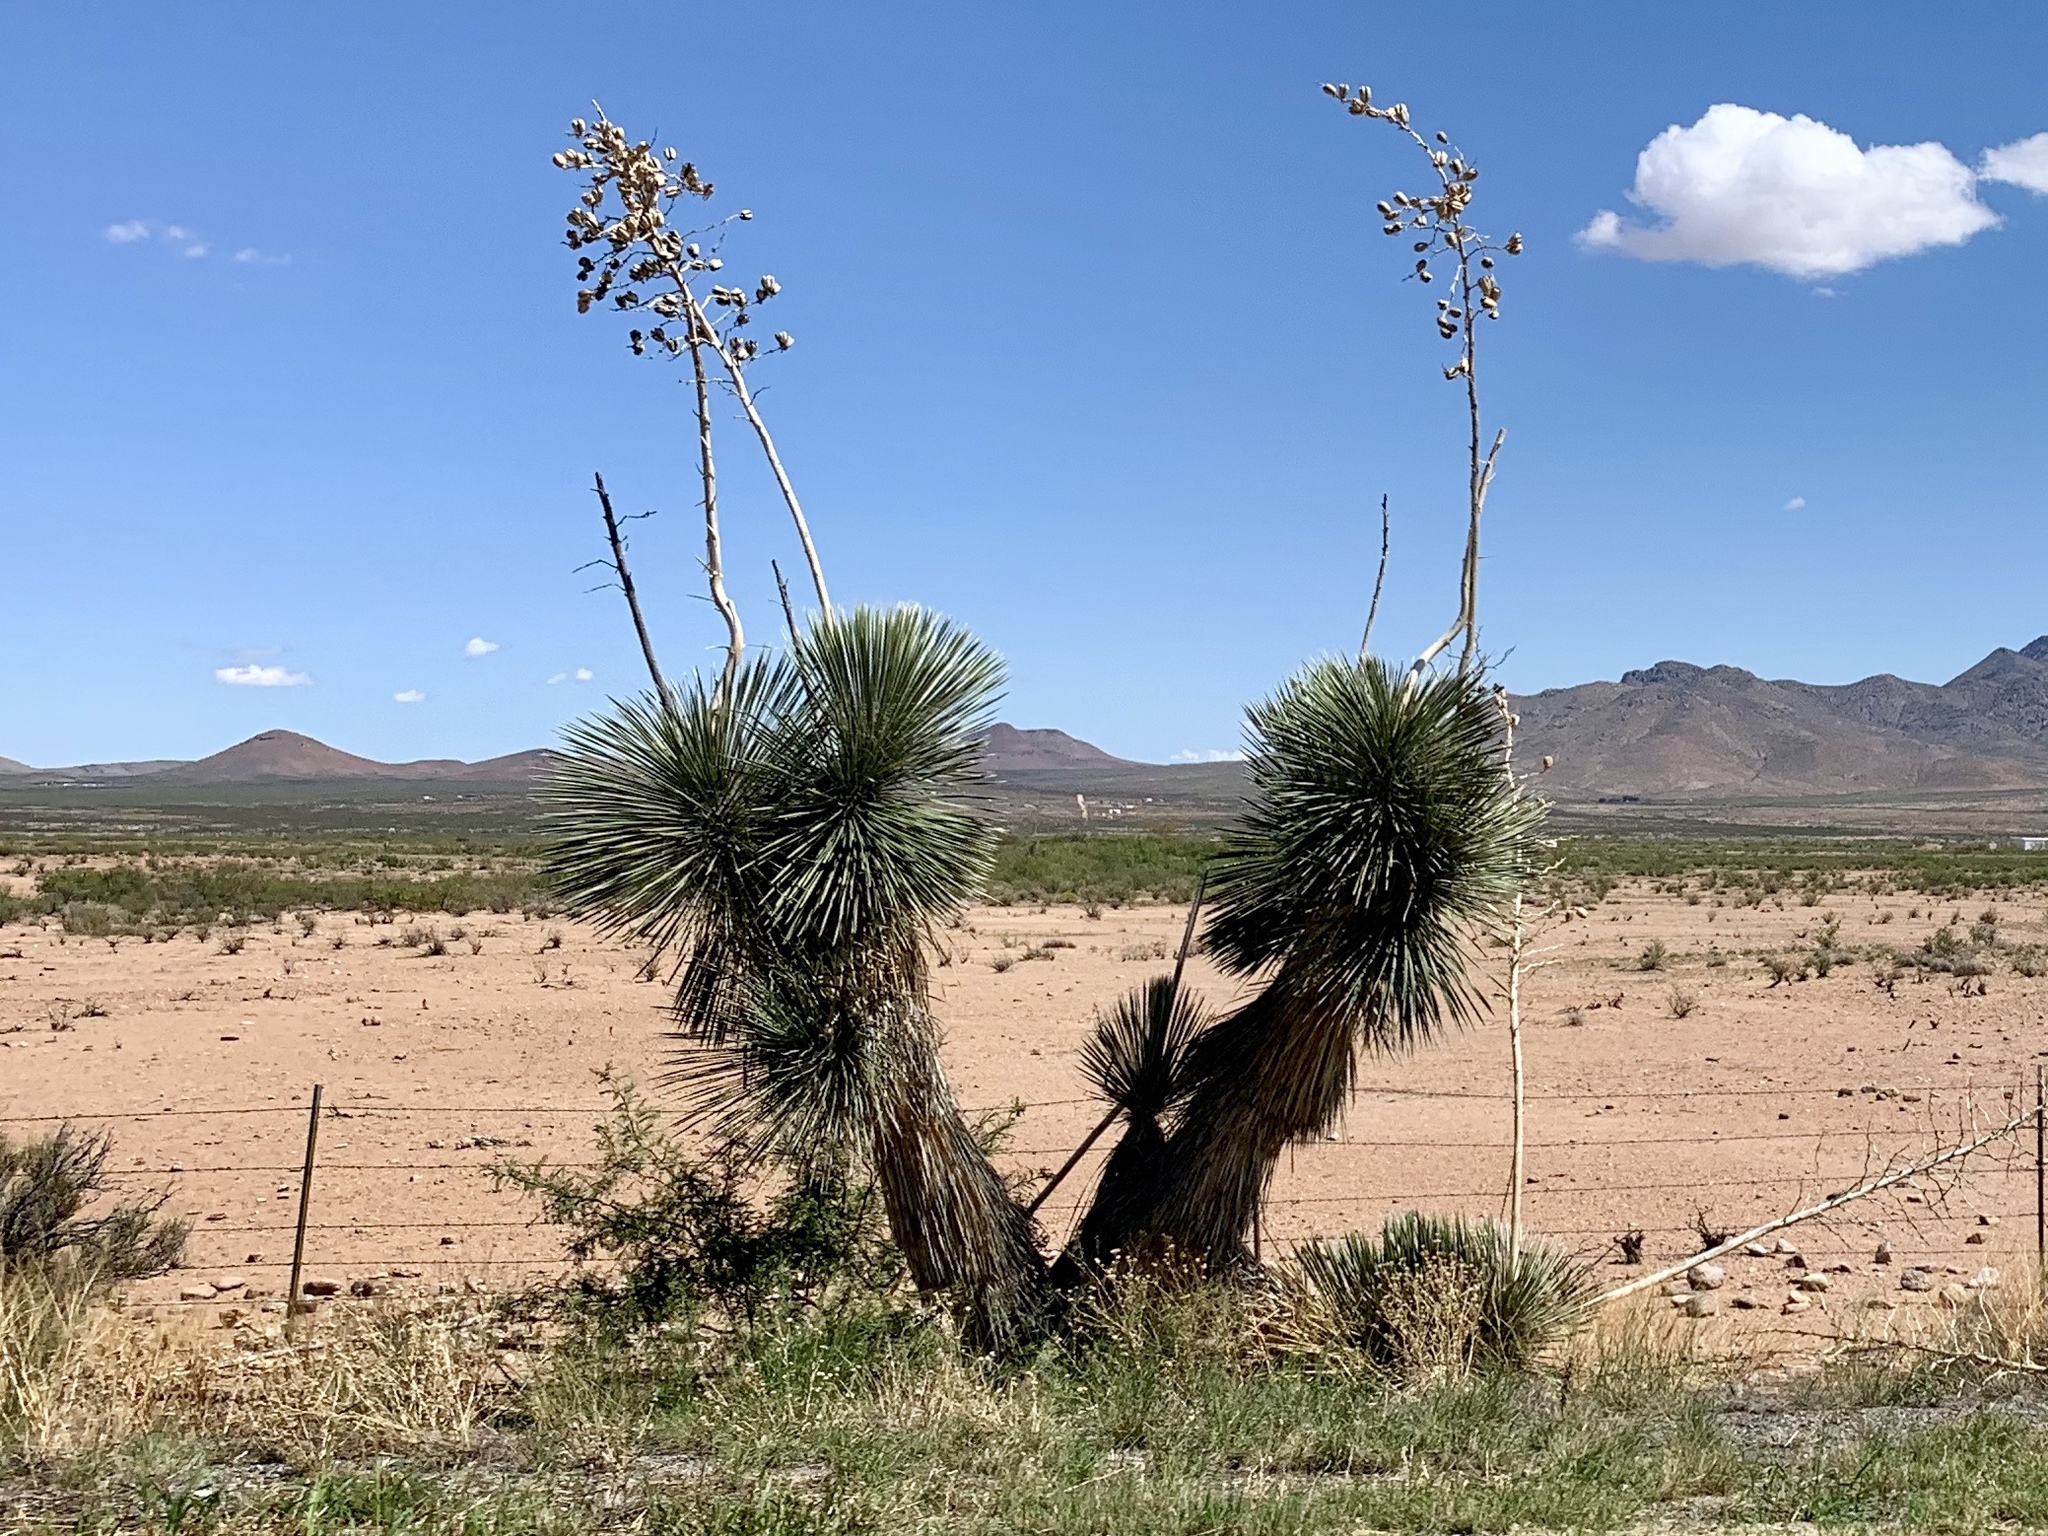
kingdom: Plantae
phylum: Tracheophyta
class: Liliopsida
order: Asparagales
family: Asparagaceae
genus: Yucca
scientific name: Yucca elata
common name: Palmella
